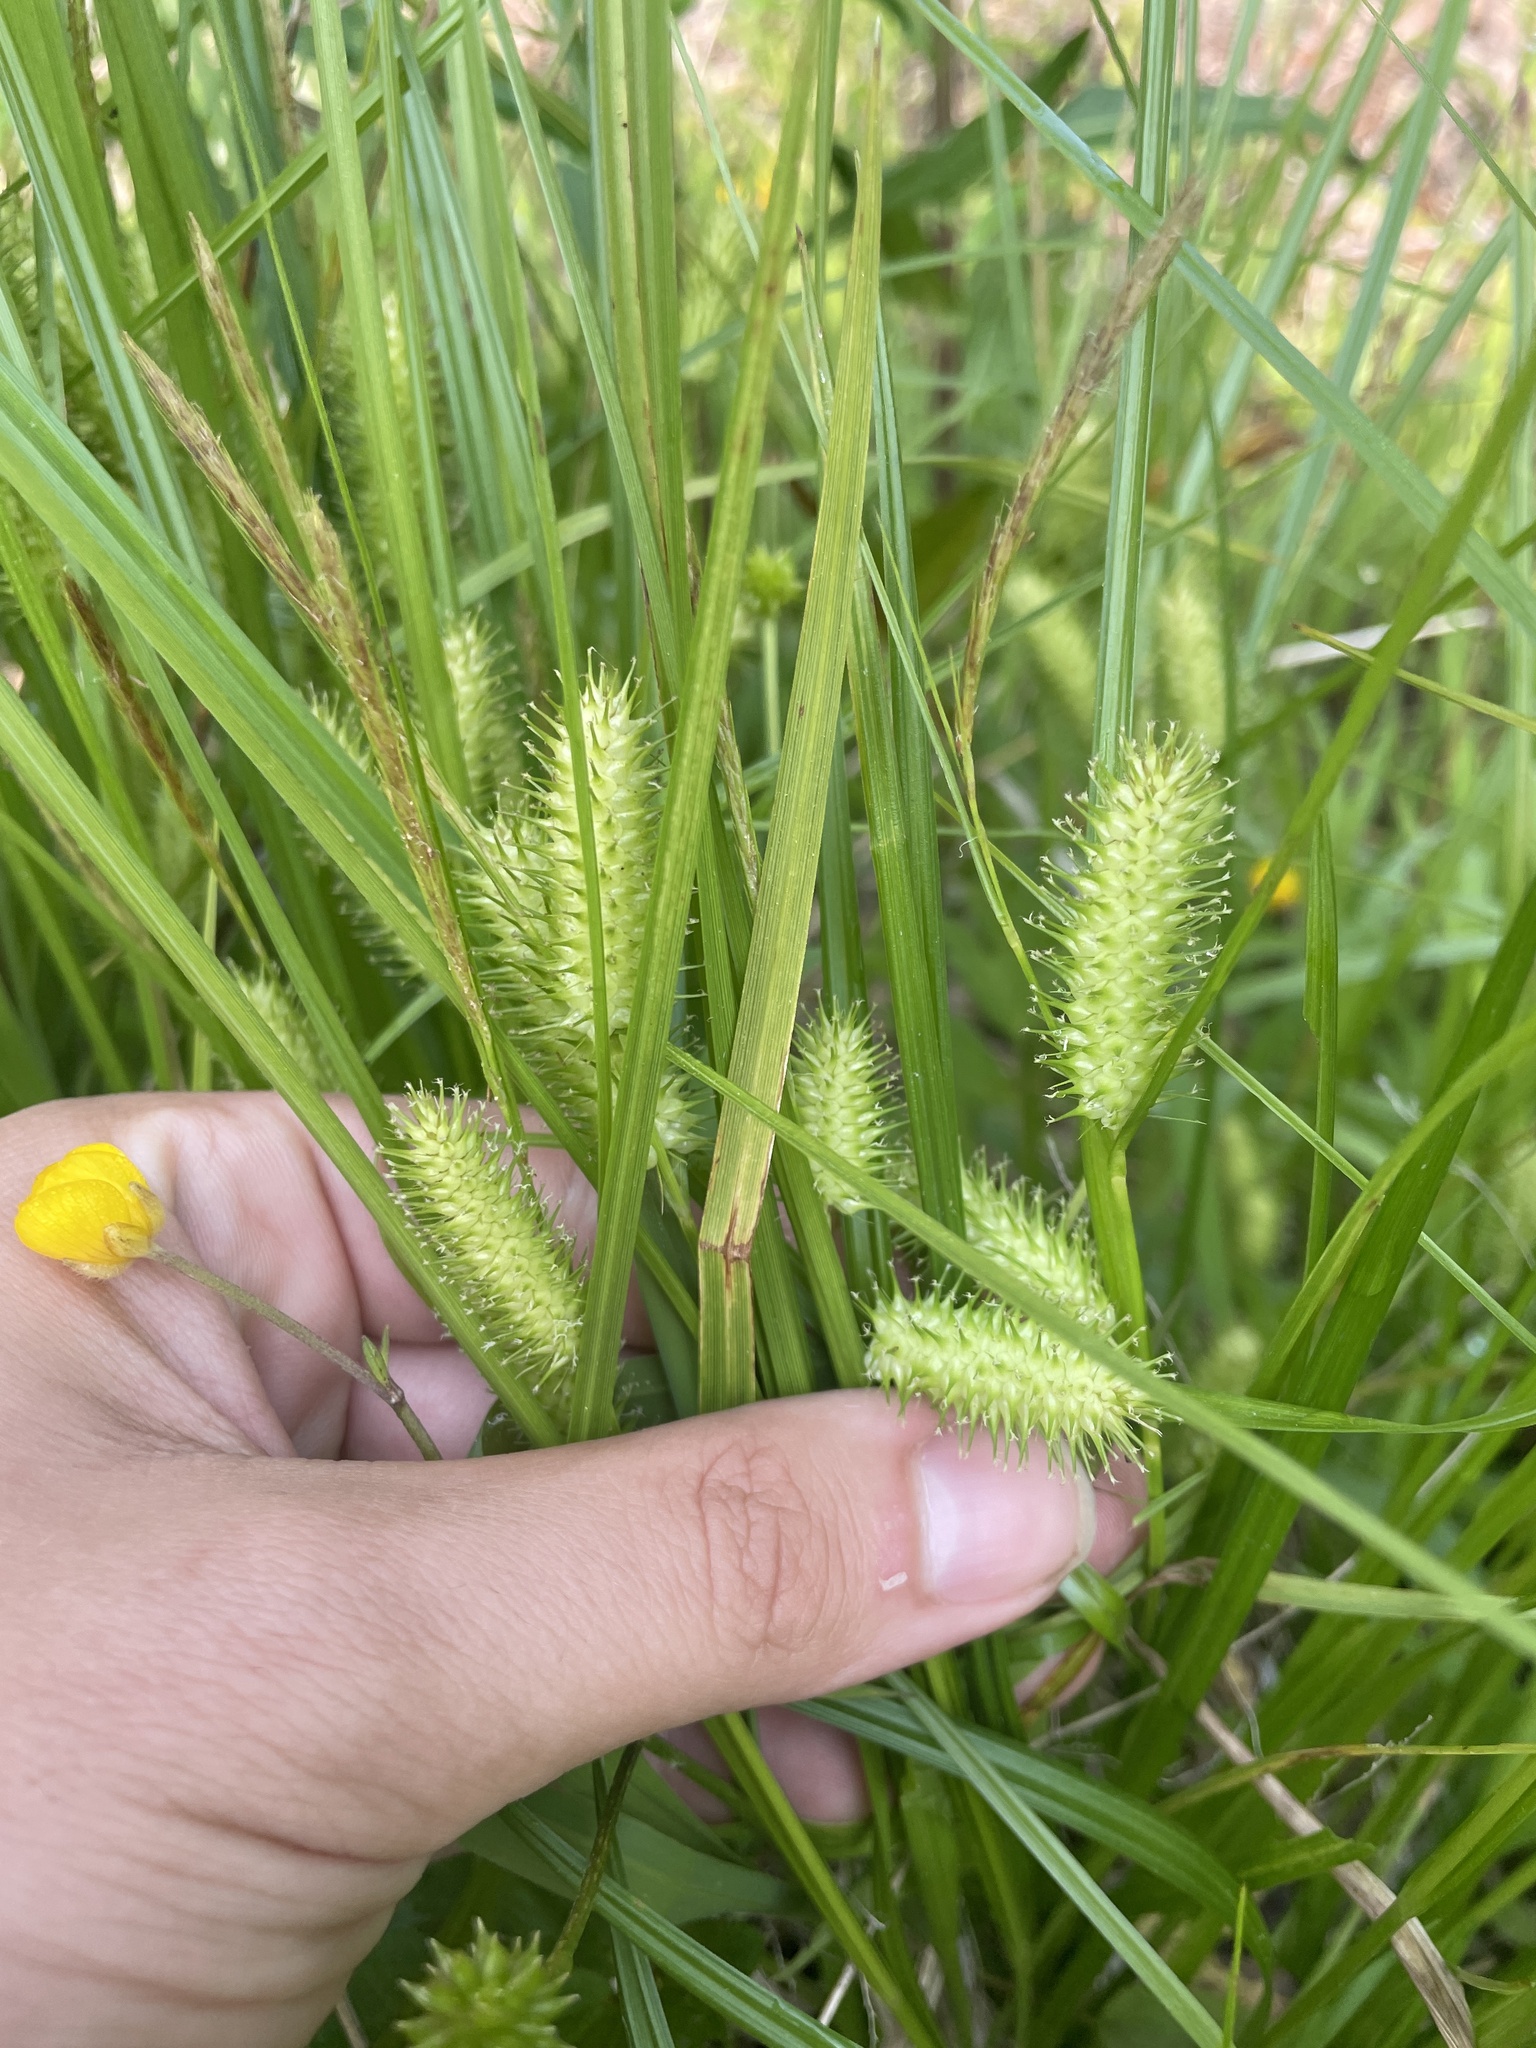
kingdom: Plantae
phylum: Tracheophyta
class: Liliopsida
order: Poales
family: Cyperaceae
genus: Carex
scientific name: Carex lurida
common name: Sallow sedge
